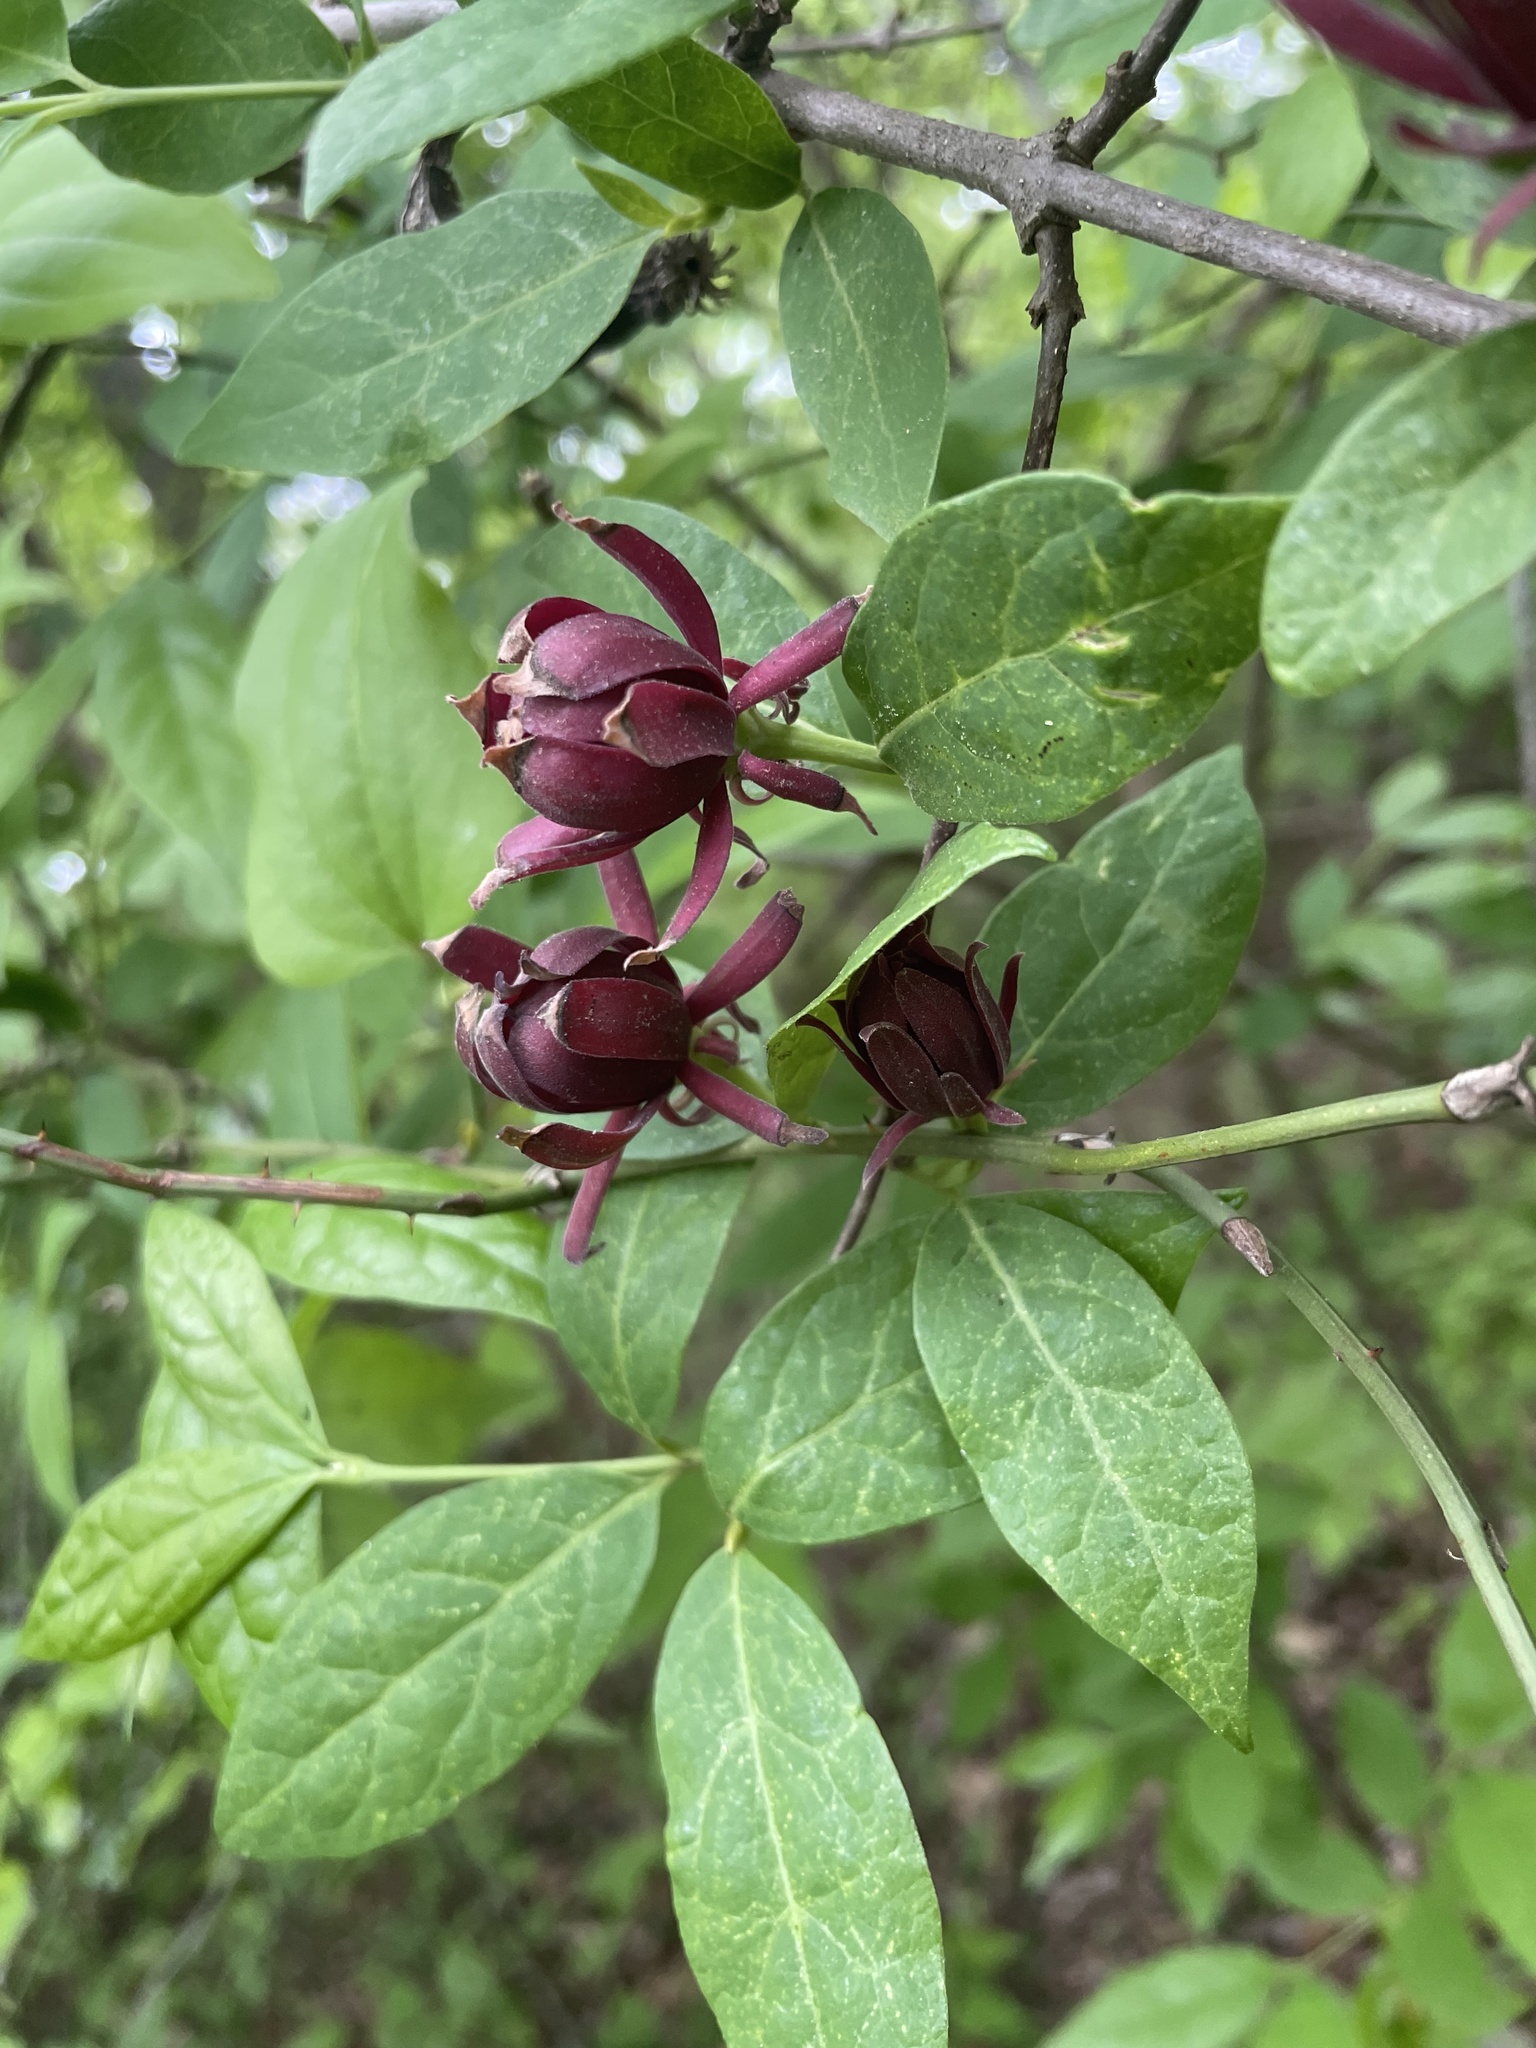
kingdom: Plantae
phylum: Tracheophyta
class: Magnoliopsida
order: Laurales
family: Calycanthaceae
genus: Calycanthus
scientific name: Calycanthus floridus
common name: Carolina-allspice
